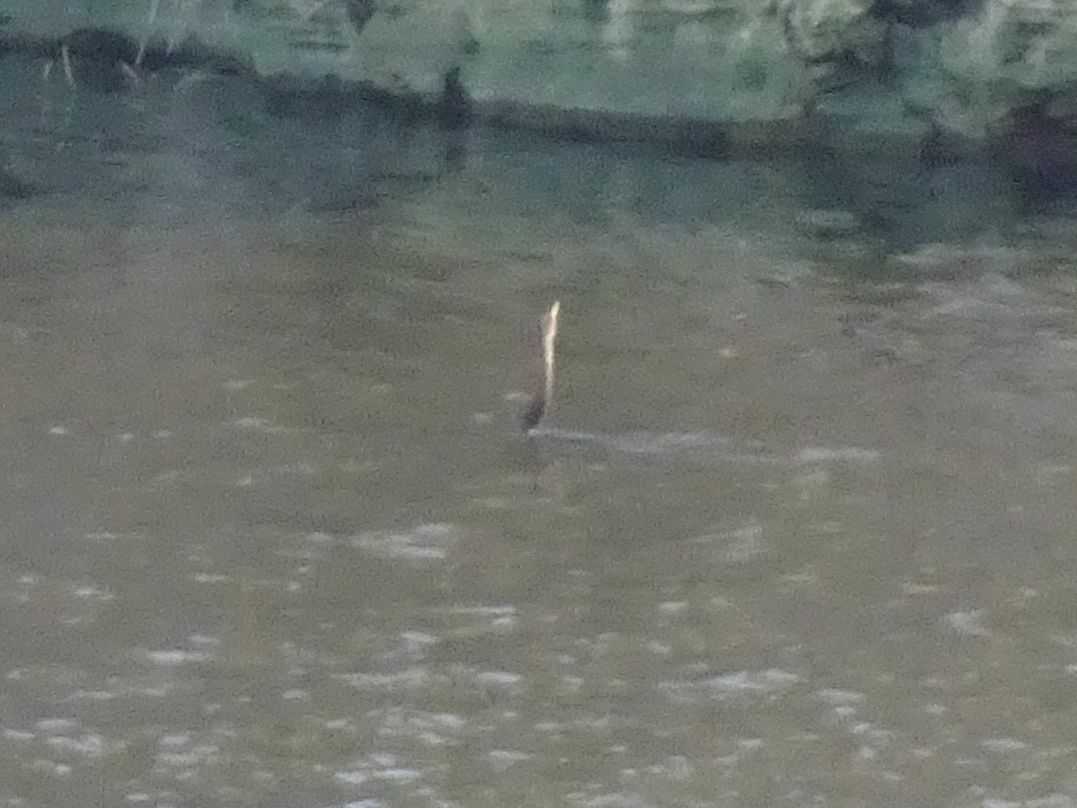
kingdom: Animalia
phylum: Chordata
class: Aves
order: Suliformes
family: Anhingidae
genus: Anhinga
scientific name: Anhinga rufa
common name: African darter
